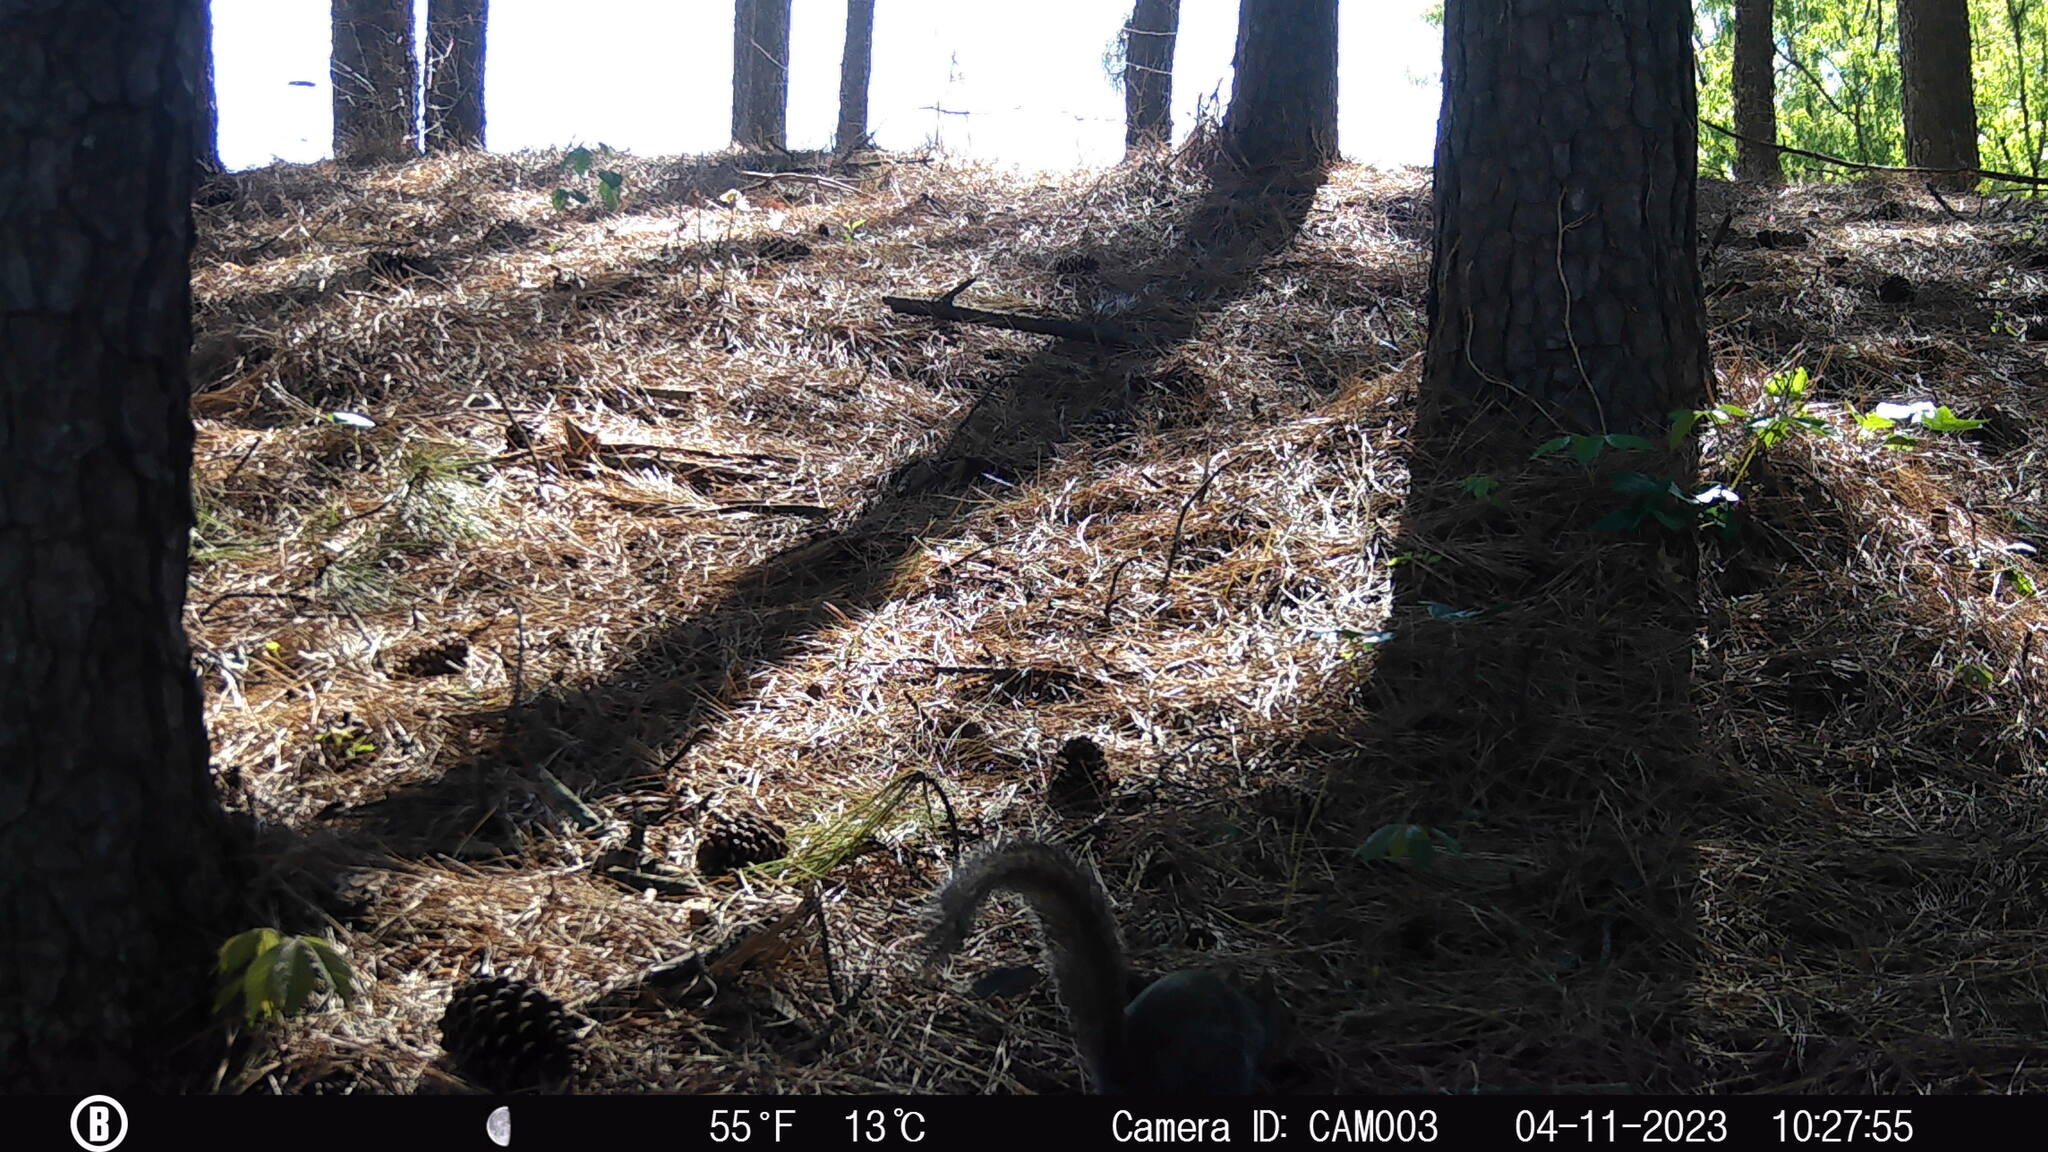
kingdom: Animalia
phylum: Chordata
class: Mammalia
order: Rodentia
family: Sciuridae
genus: Sciurus
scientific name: Sciurus carolinensis
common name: Eastern gray squirrel
